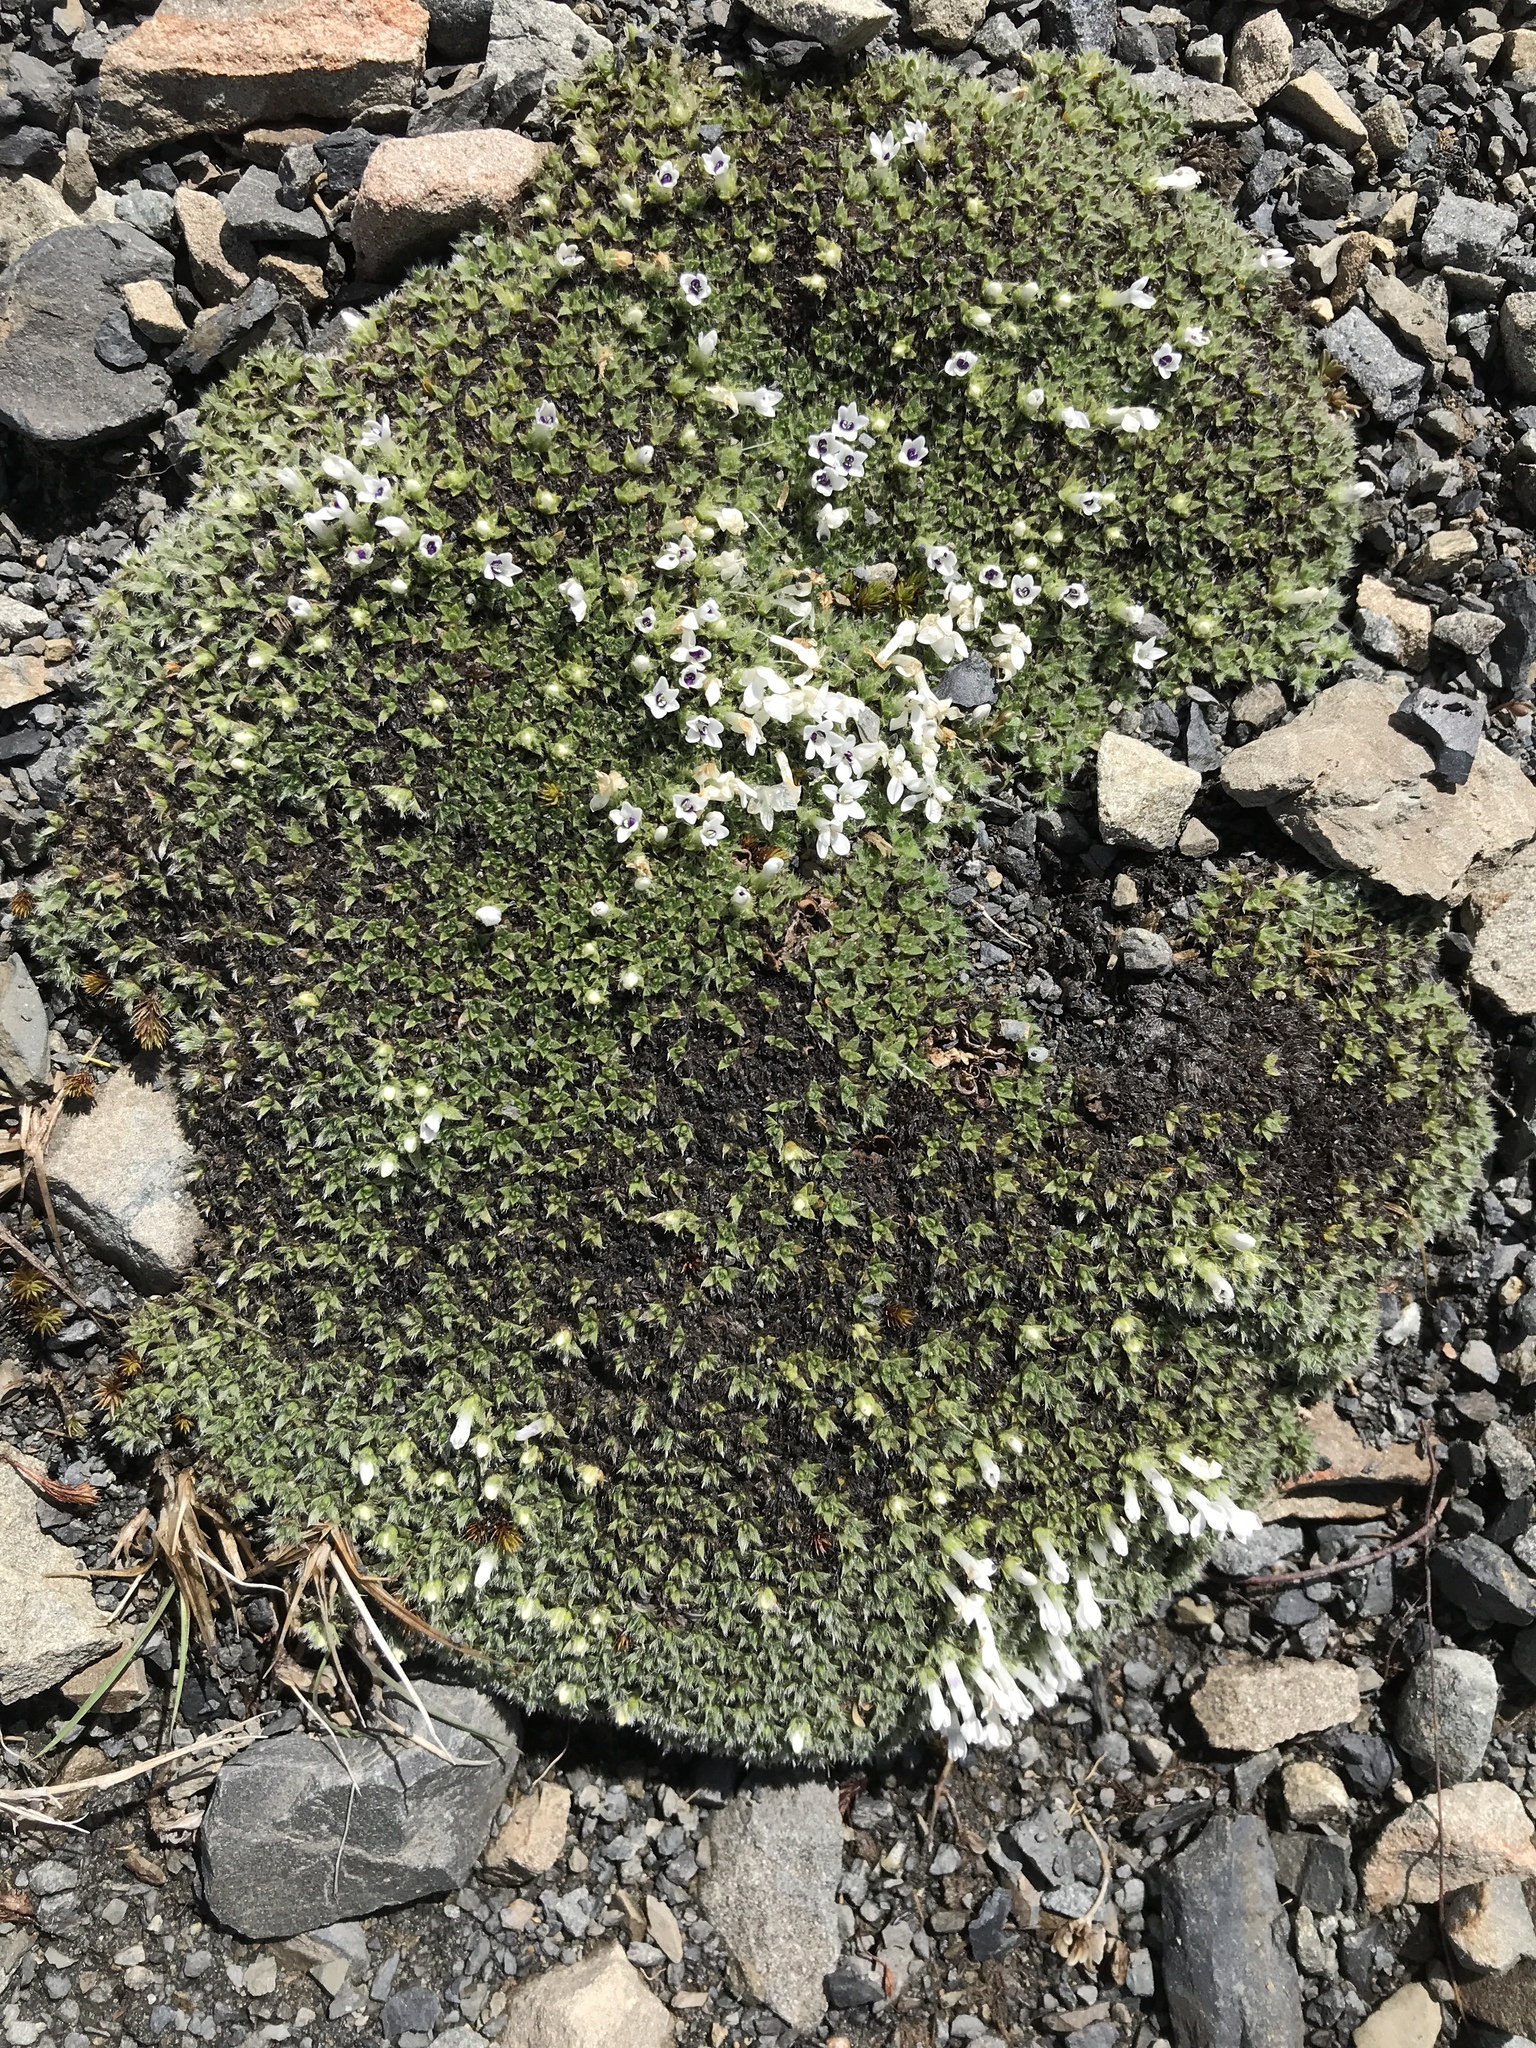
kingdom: Plantae
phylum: Tracheophyta
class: Magnoliopsida
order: Lamiales
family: Plantaginaceae
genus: Veronica
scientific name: Veronica pulvinaris
